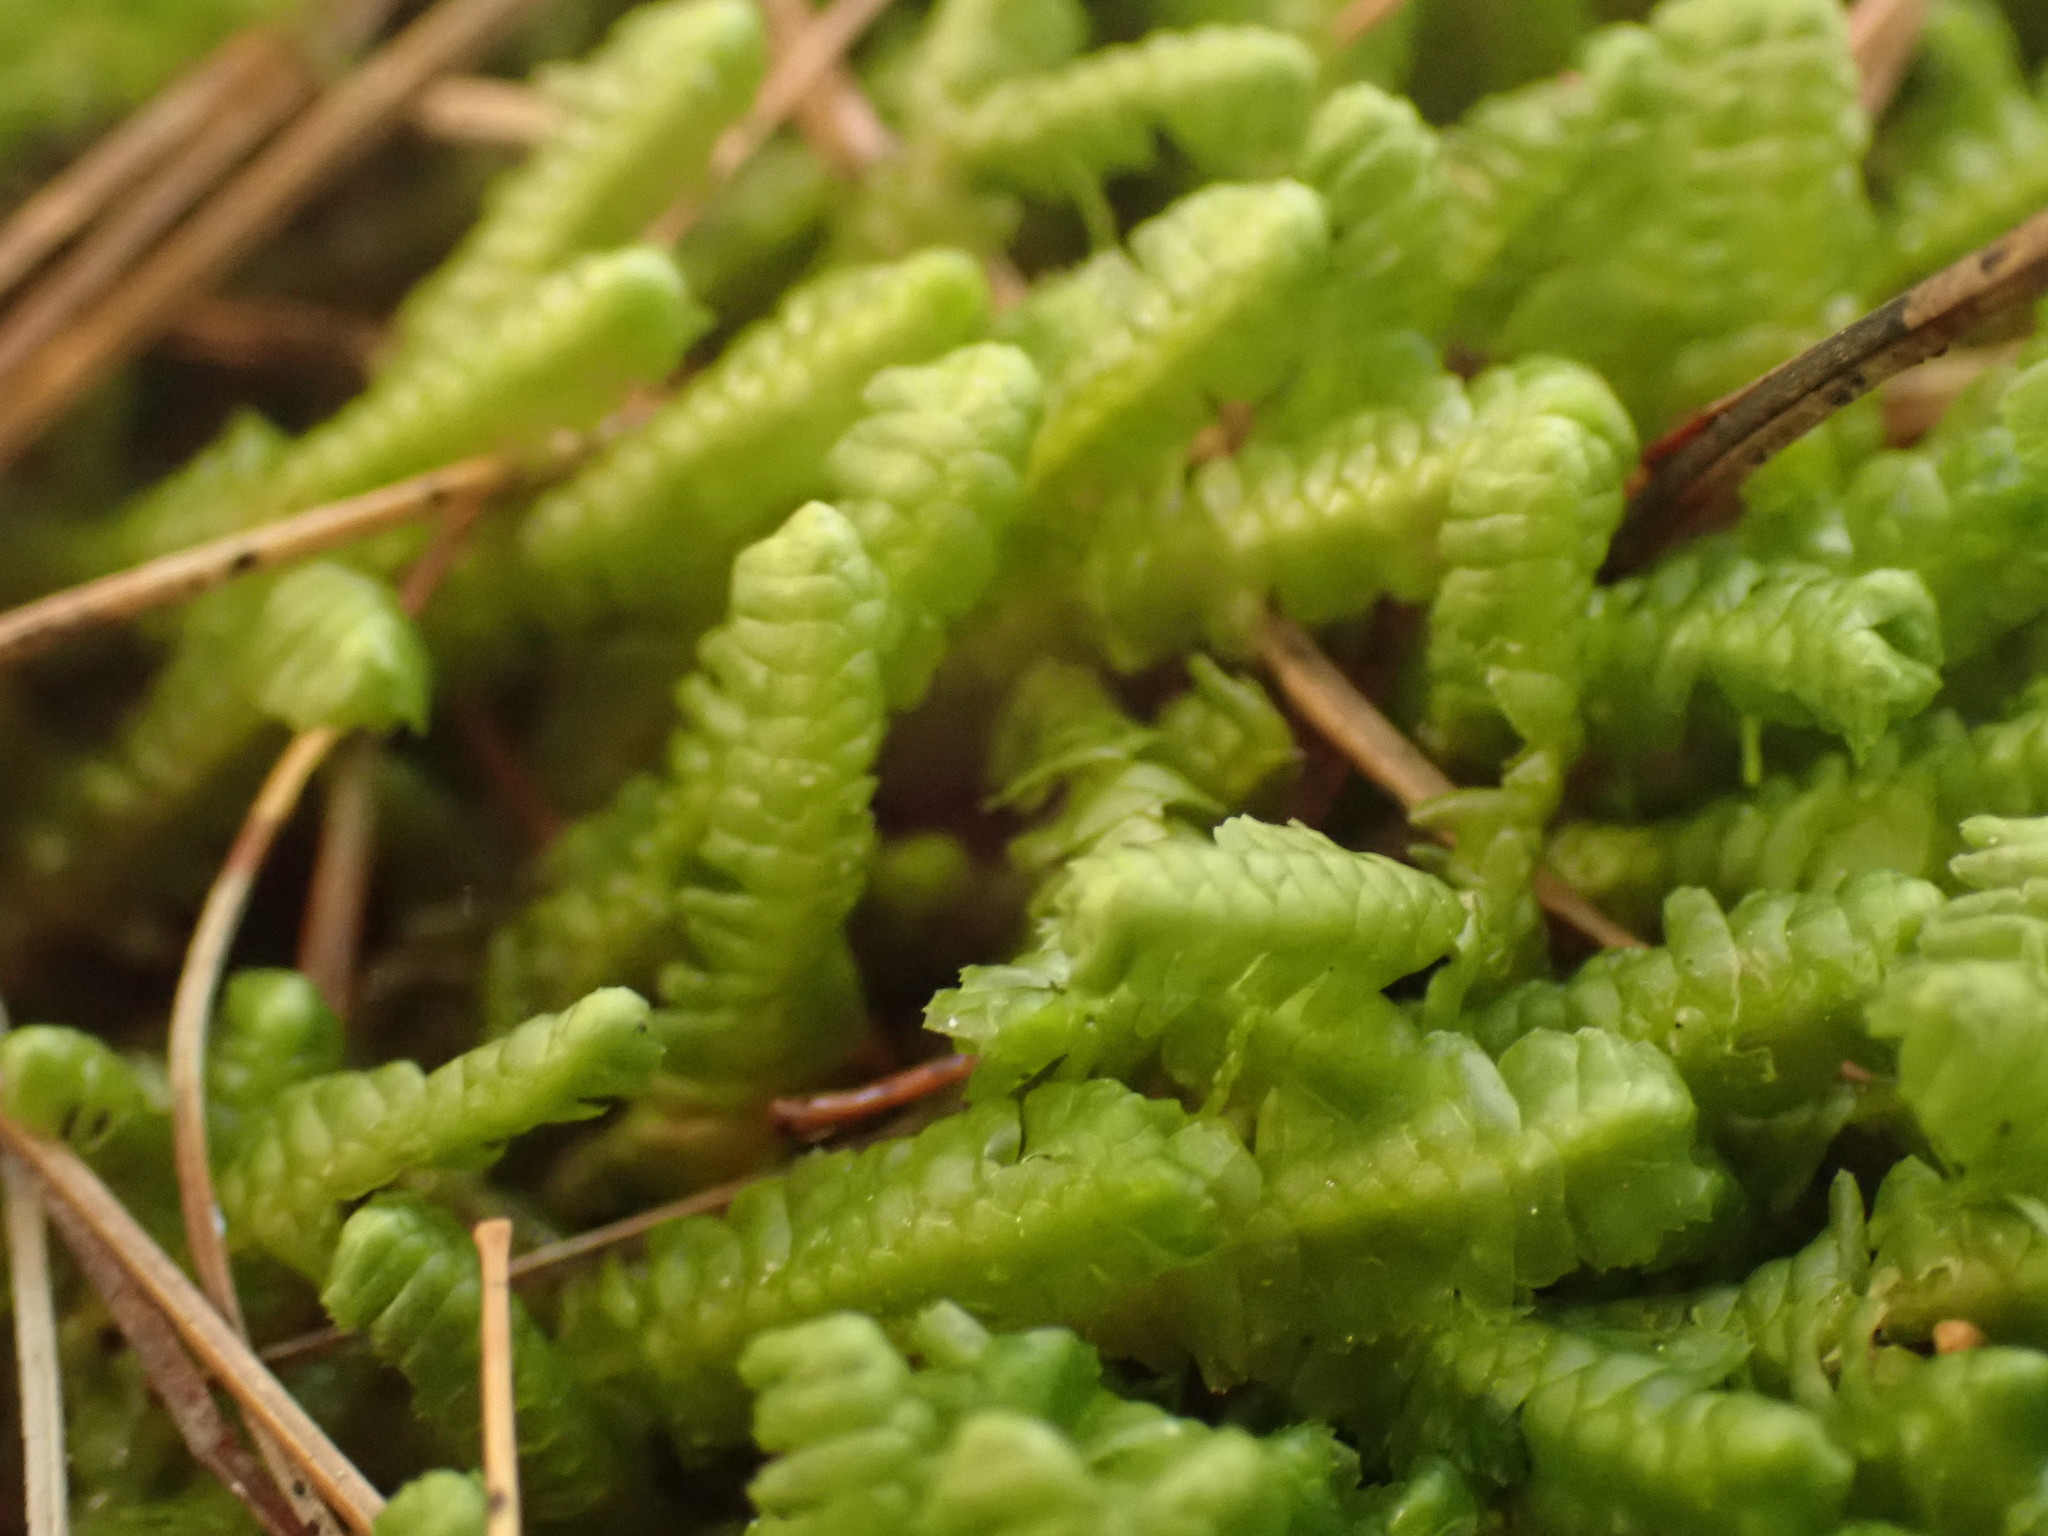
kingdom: Plantae
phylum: Marchantiophyta
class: Jungermanniopsida
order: Jungermanniales
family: Lepidoziaceae
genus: Bazzania
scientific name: Bazzania trilobata
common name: Three-lobed whipwort
